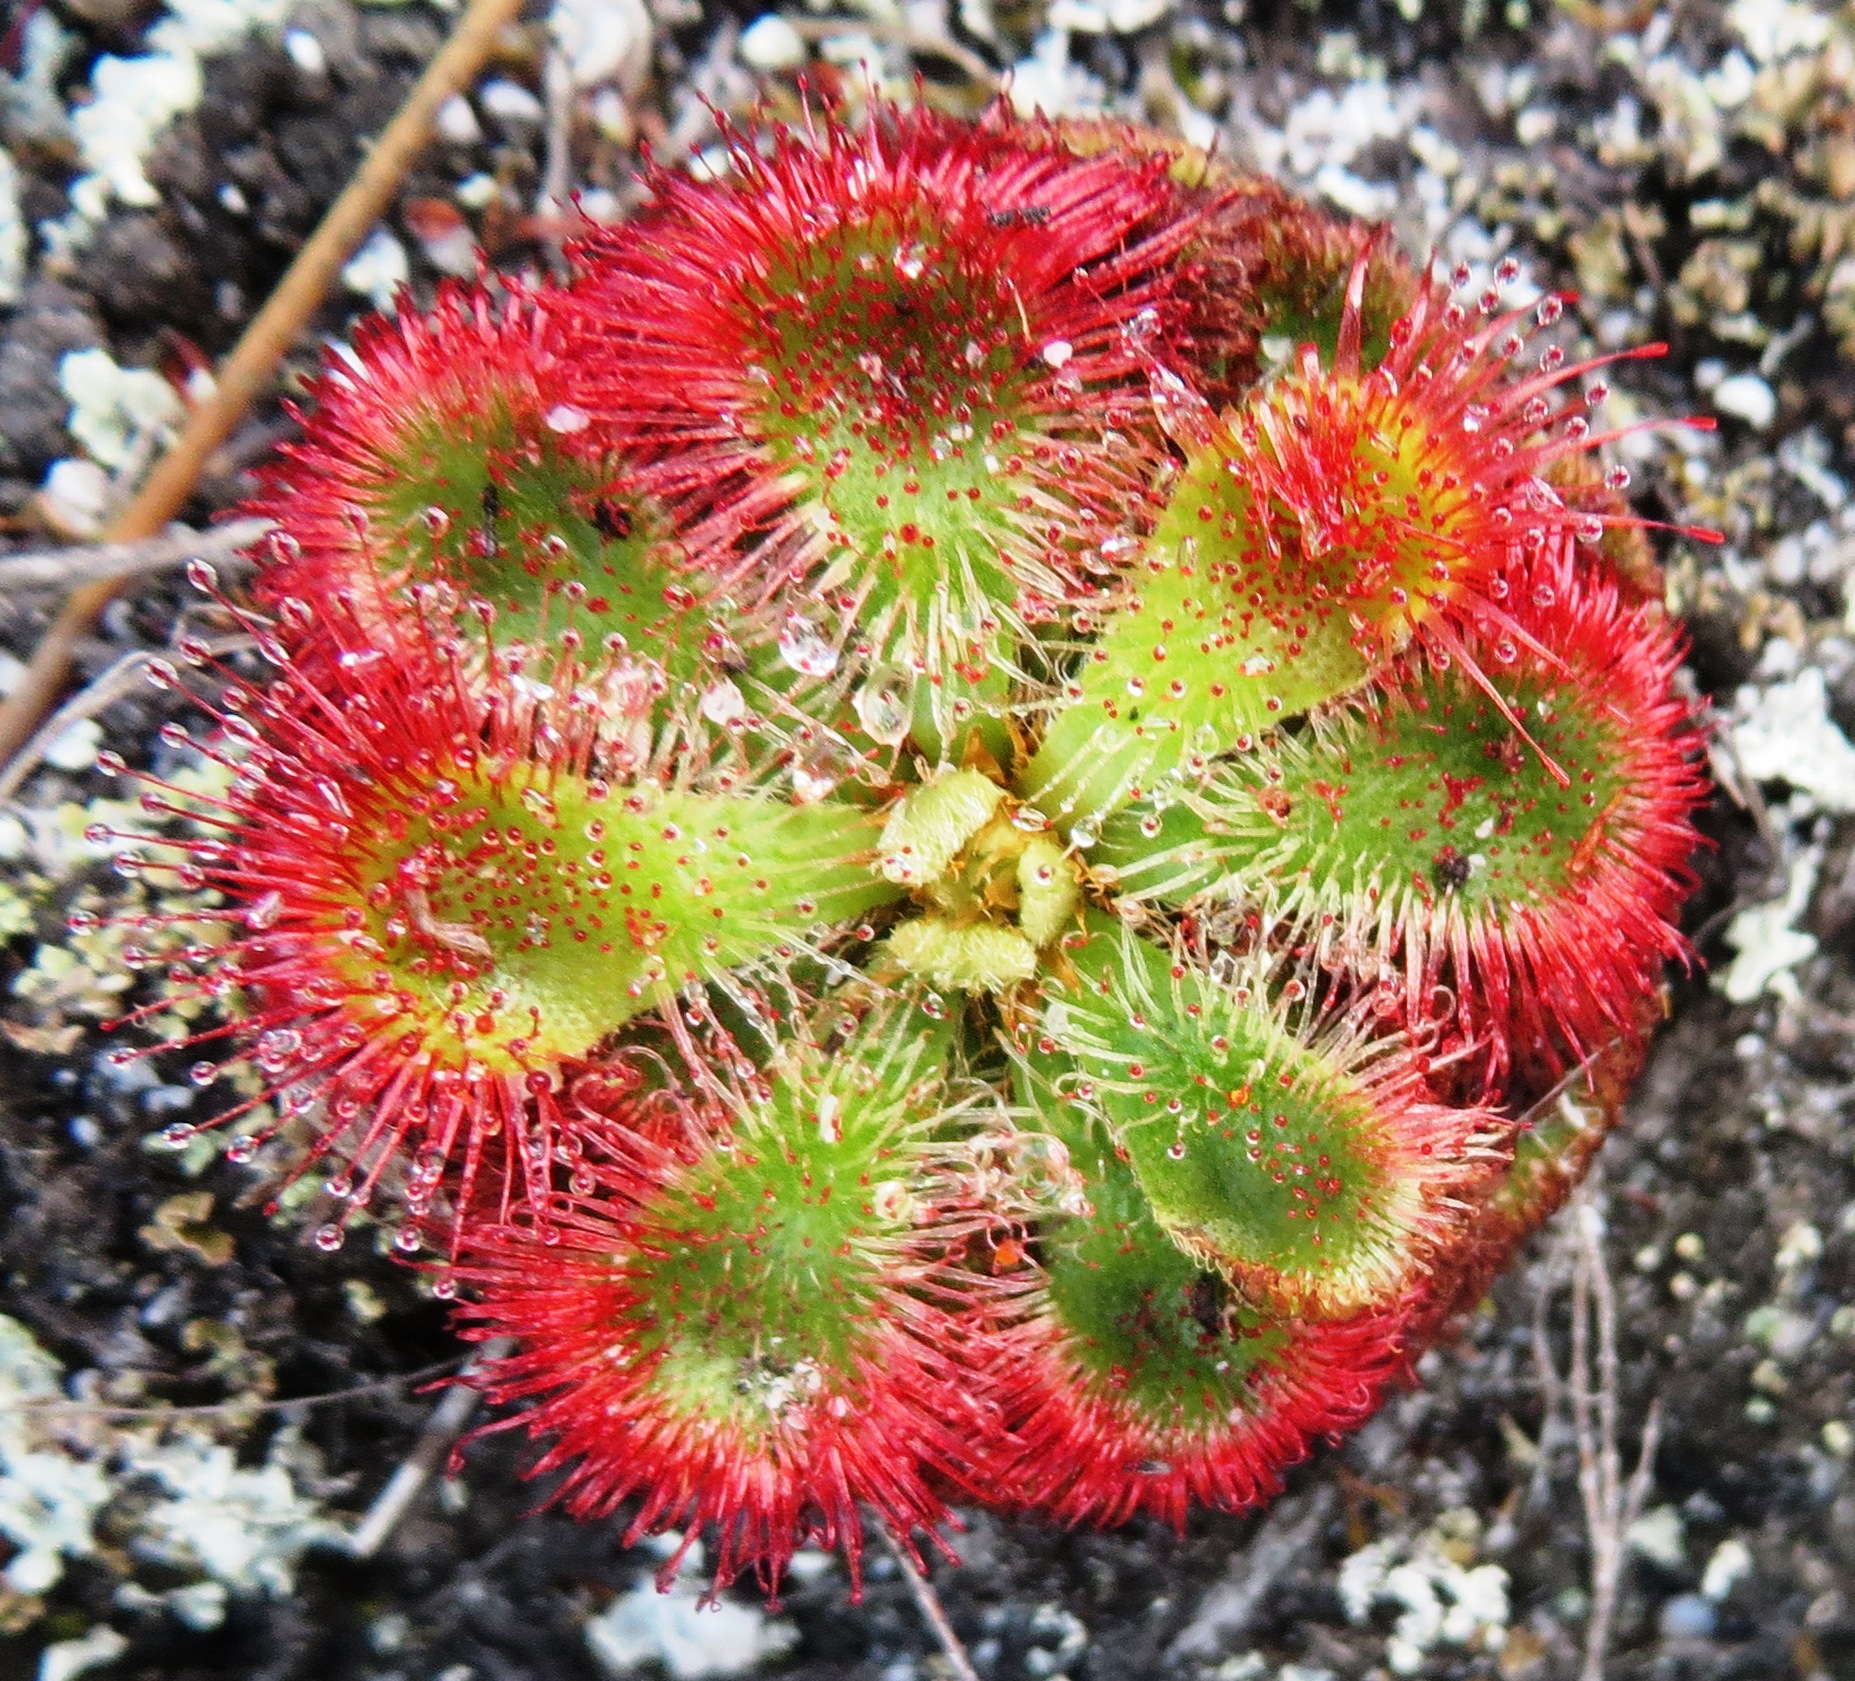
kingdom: Plantae
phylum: Tracheophyta
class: Magnoliopsida
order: Caryophyllales
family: Droseraceae
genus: Drosera
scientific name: Drosera xerophila
